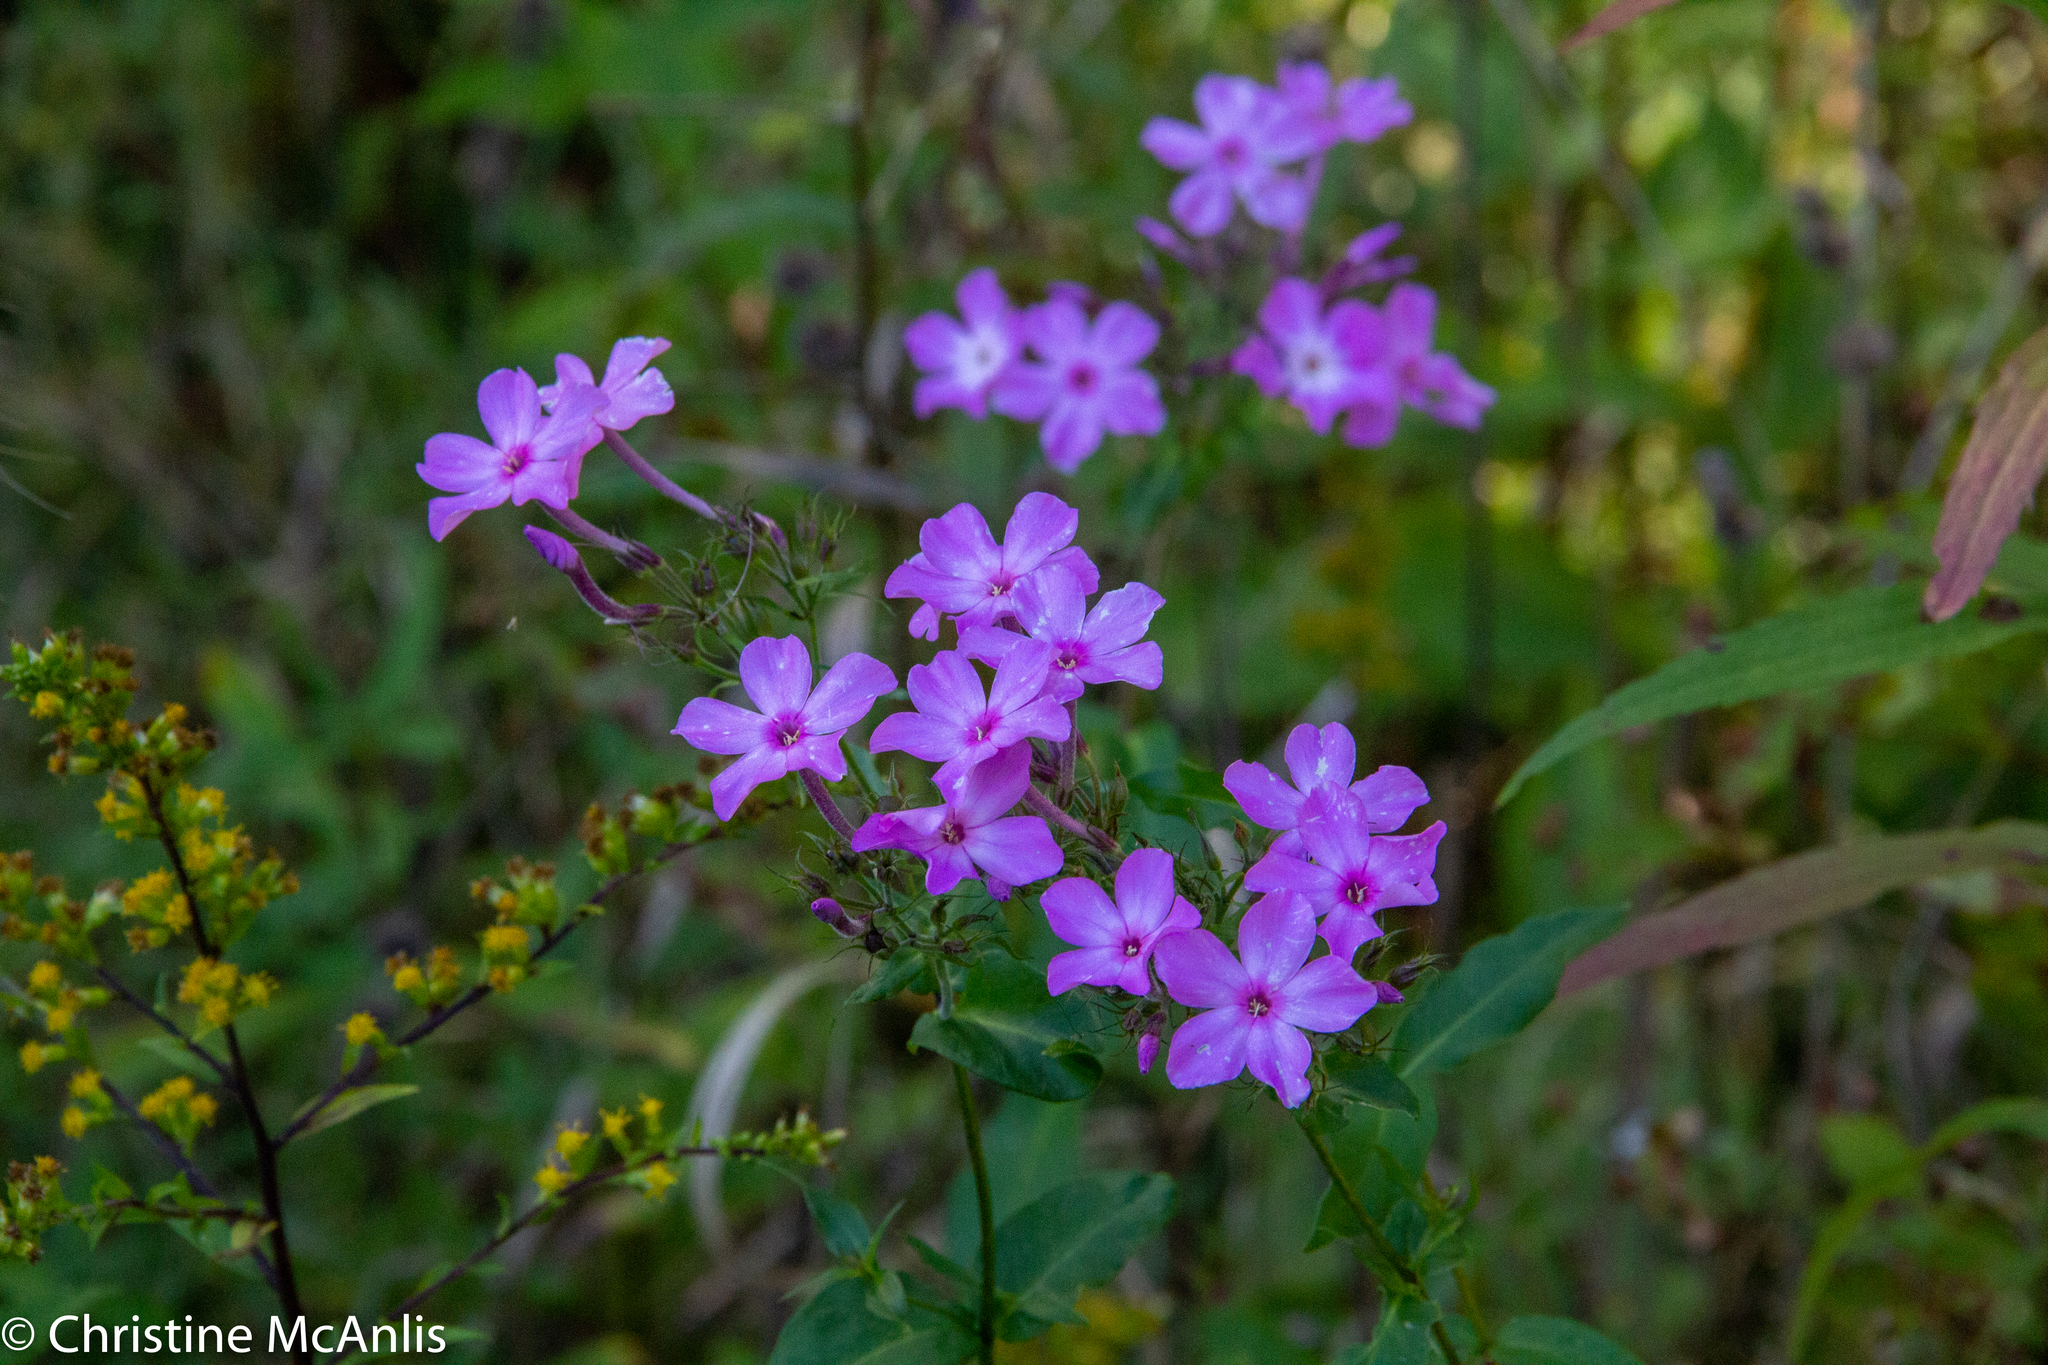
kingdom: Plantae
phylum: Tracheophyta
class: Magnoliopsida
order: Ericales
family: Polemoniaceae
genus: Phlox
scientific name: Phlox paniculata
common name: Fall phlox
